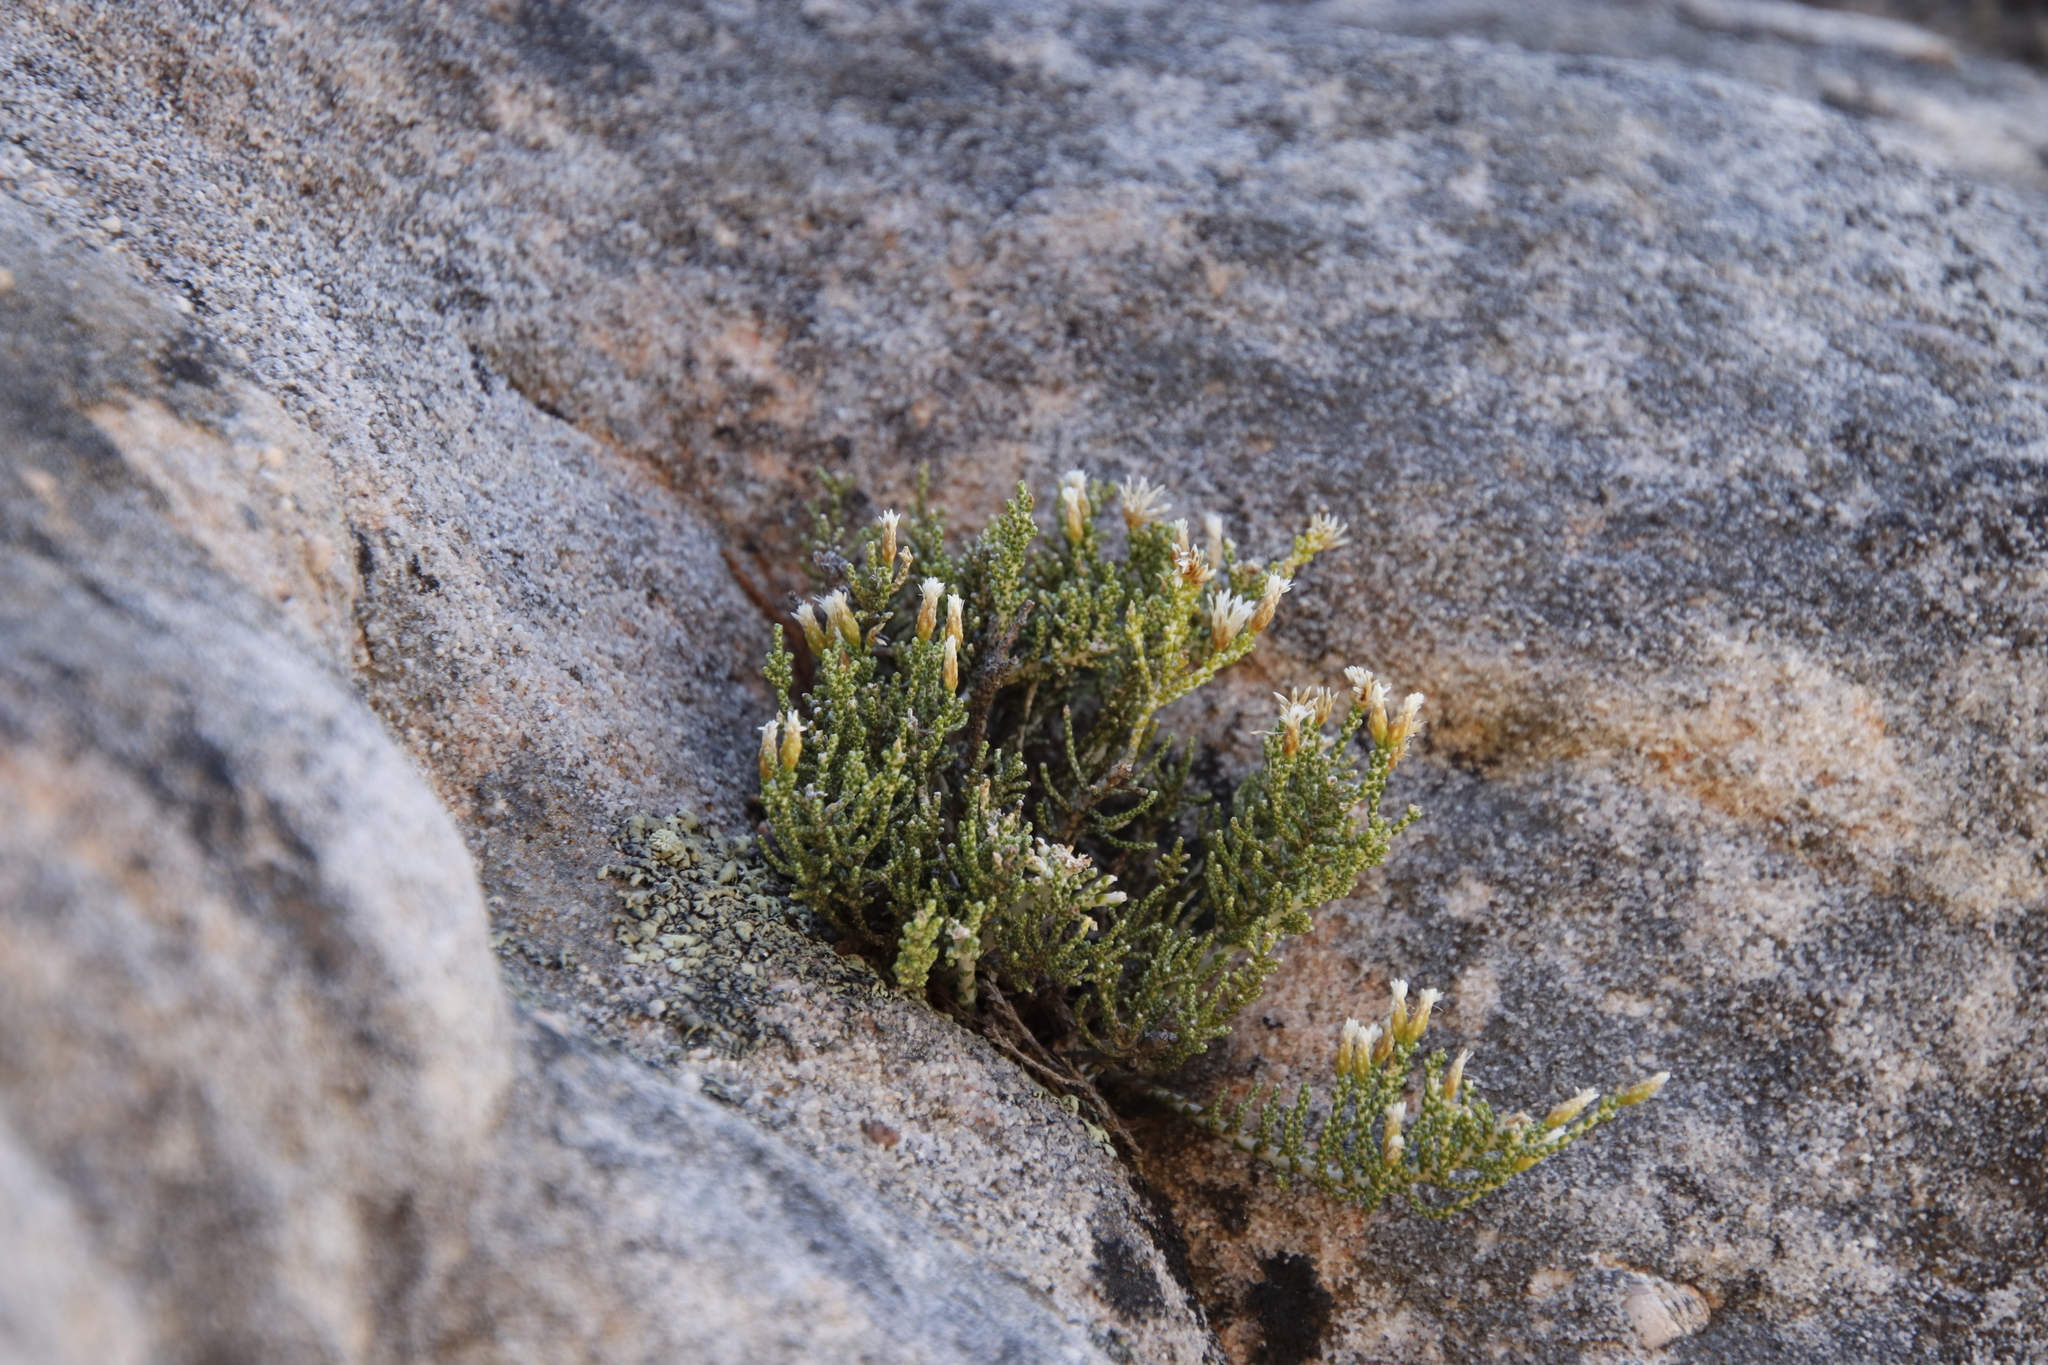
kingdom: Plantae
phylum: Tracheophyta
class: Magnoliopsida
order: Asterales
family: Asteraceae
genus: Dolichothrix
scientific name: Dolichothrix ericoides
